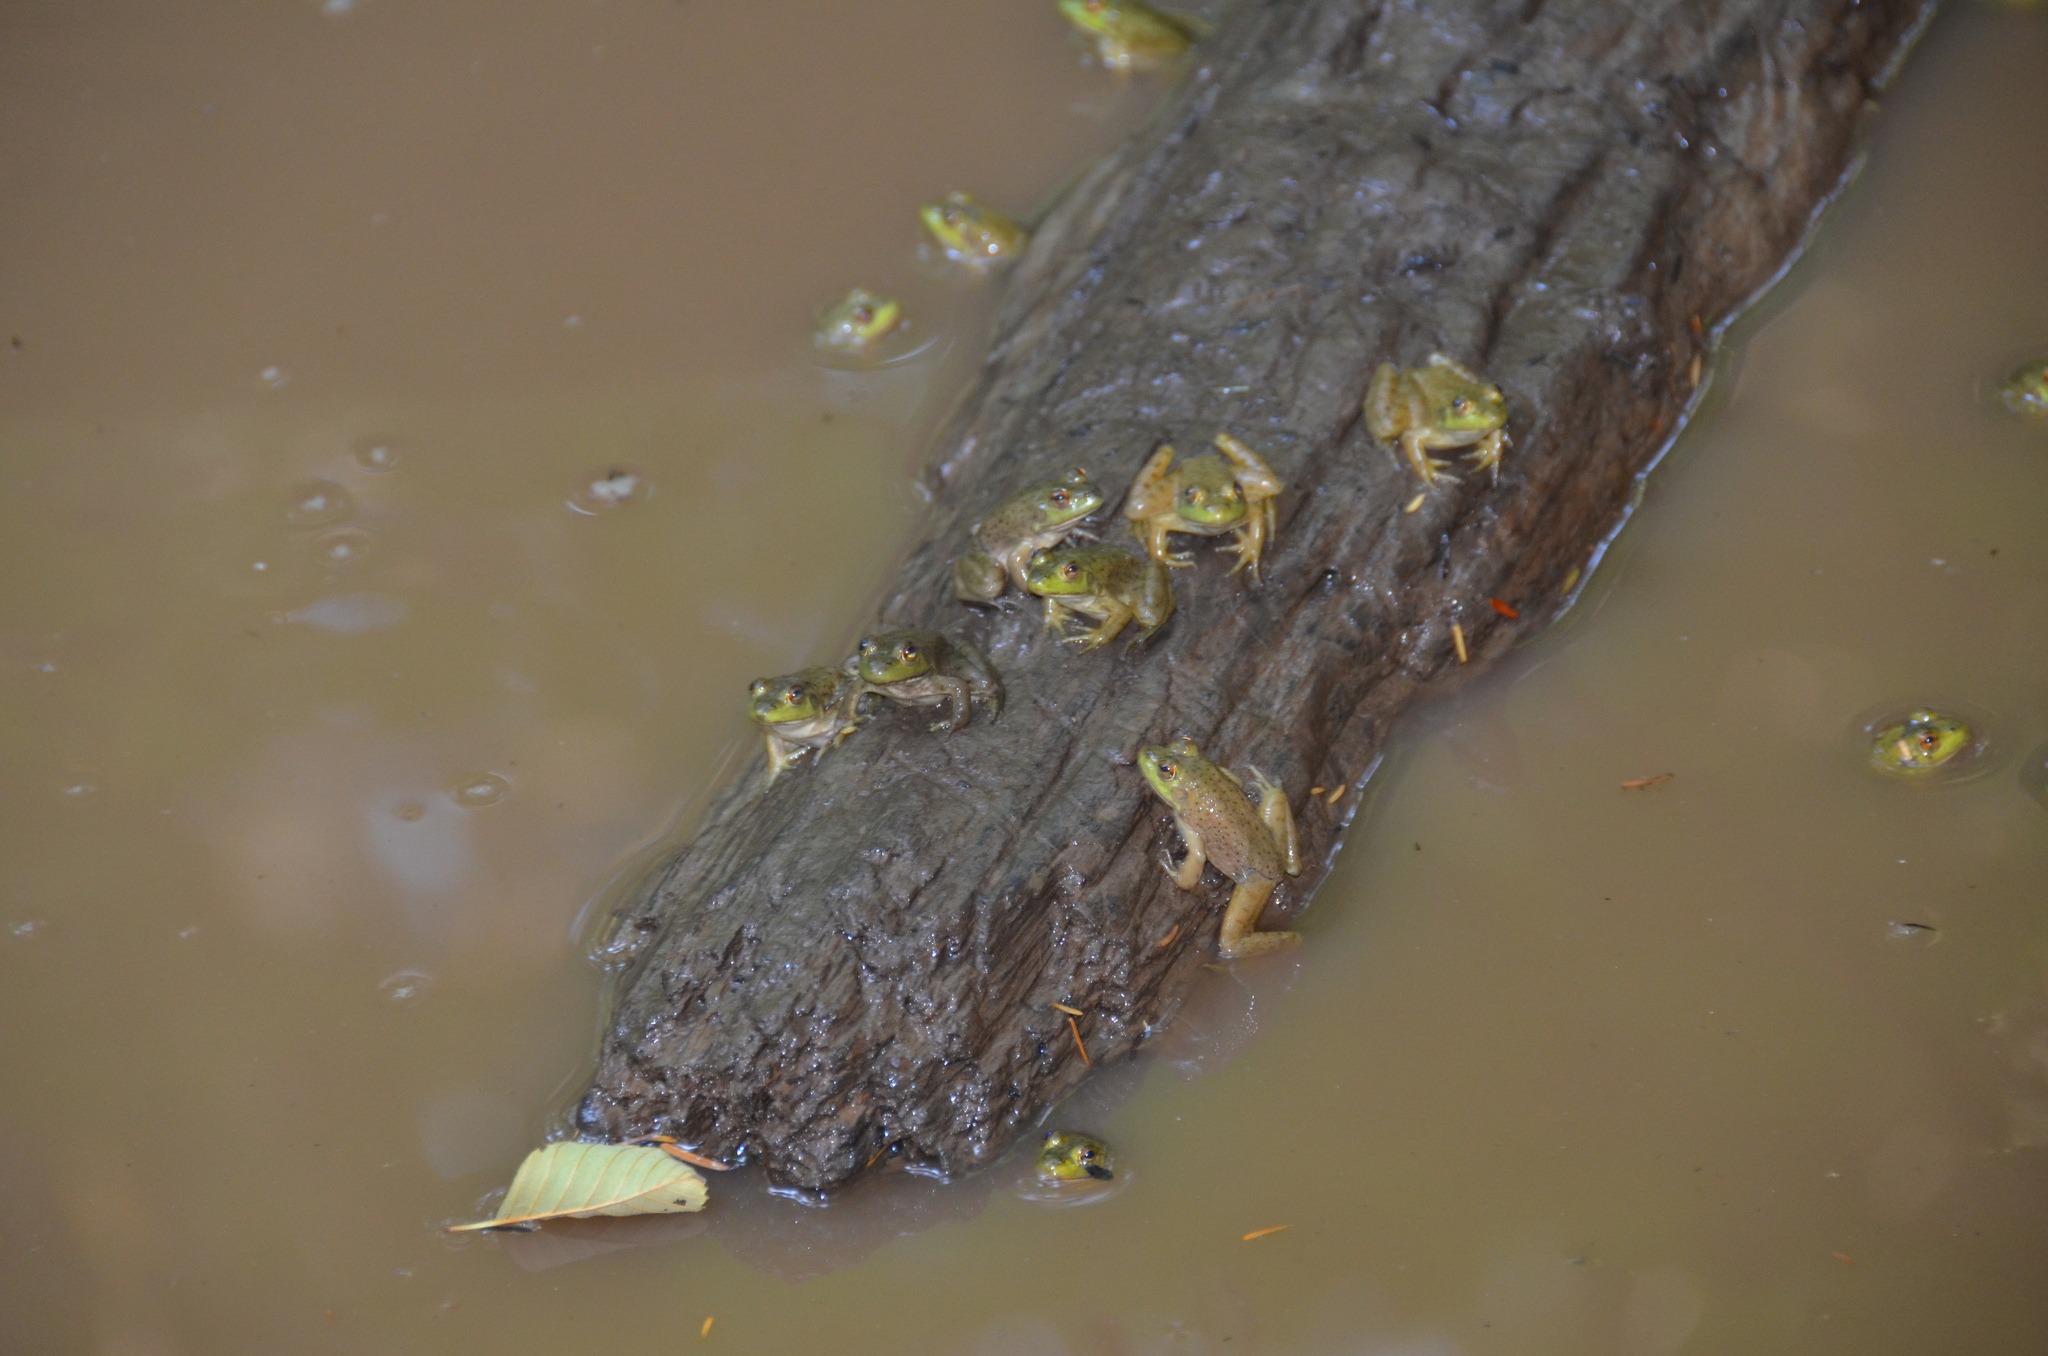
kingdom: Animalia
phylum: Chordata
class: Amphibia
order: Anura
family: Ranidae
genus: Lithobates
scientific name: Lithobates catesbeianus
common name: American bullfrog
